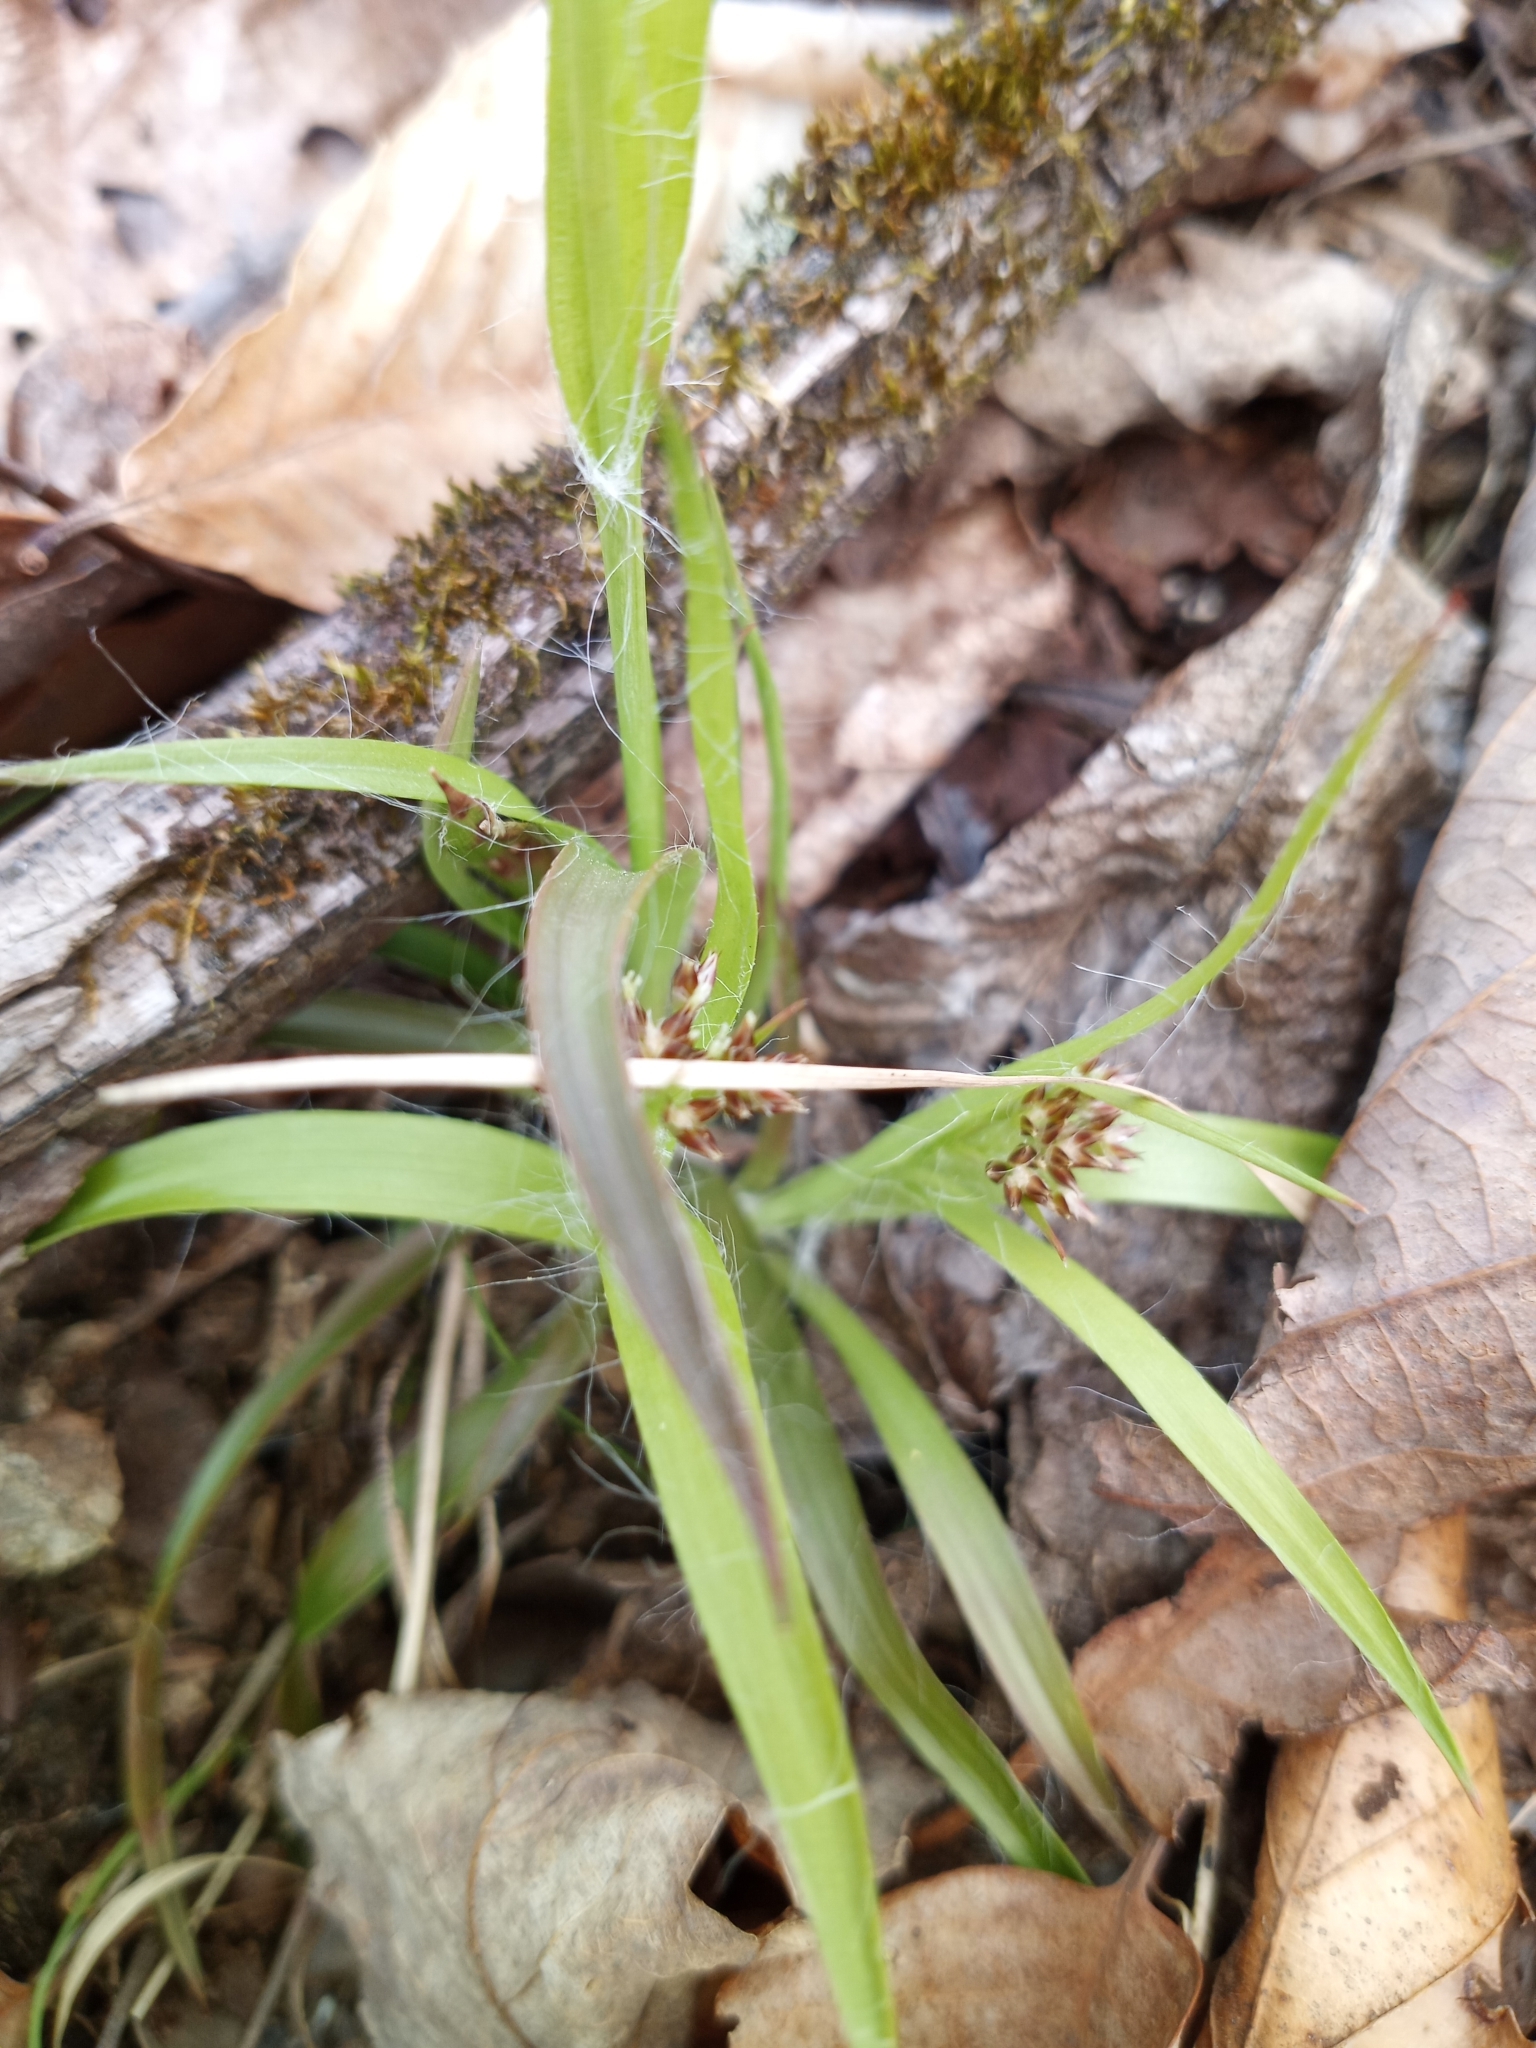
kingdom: Plantae
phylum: Tracheophyta
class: Liliopsida
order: Poales
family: Juncaceae
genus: Luzula
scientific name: Luzula echinata
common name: Hedgehog woodrush
